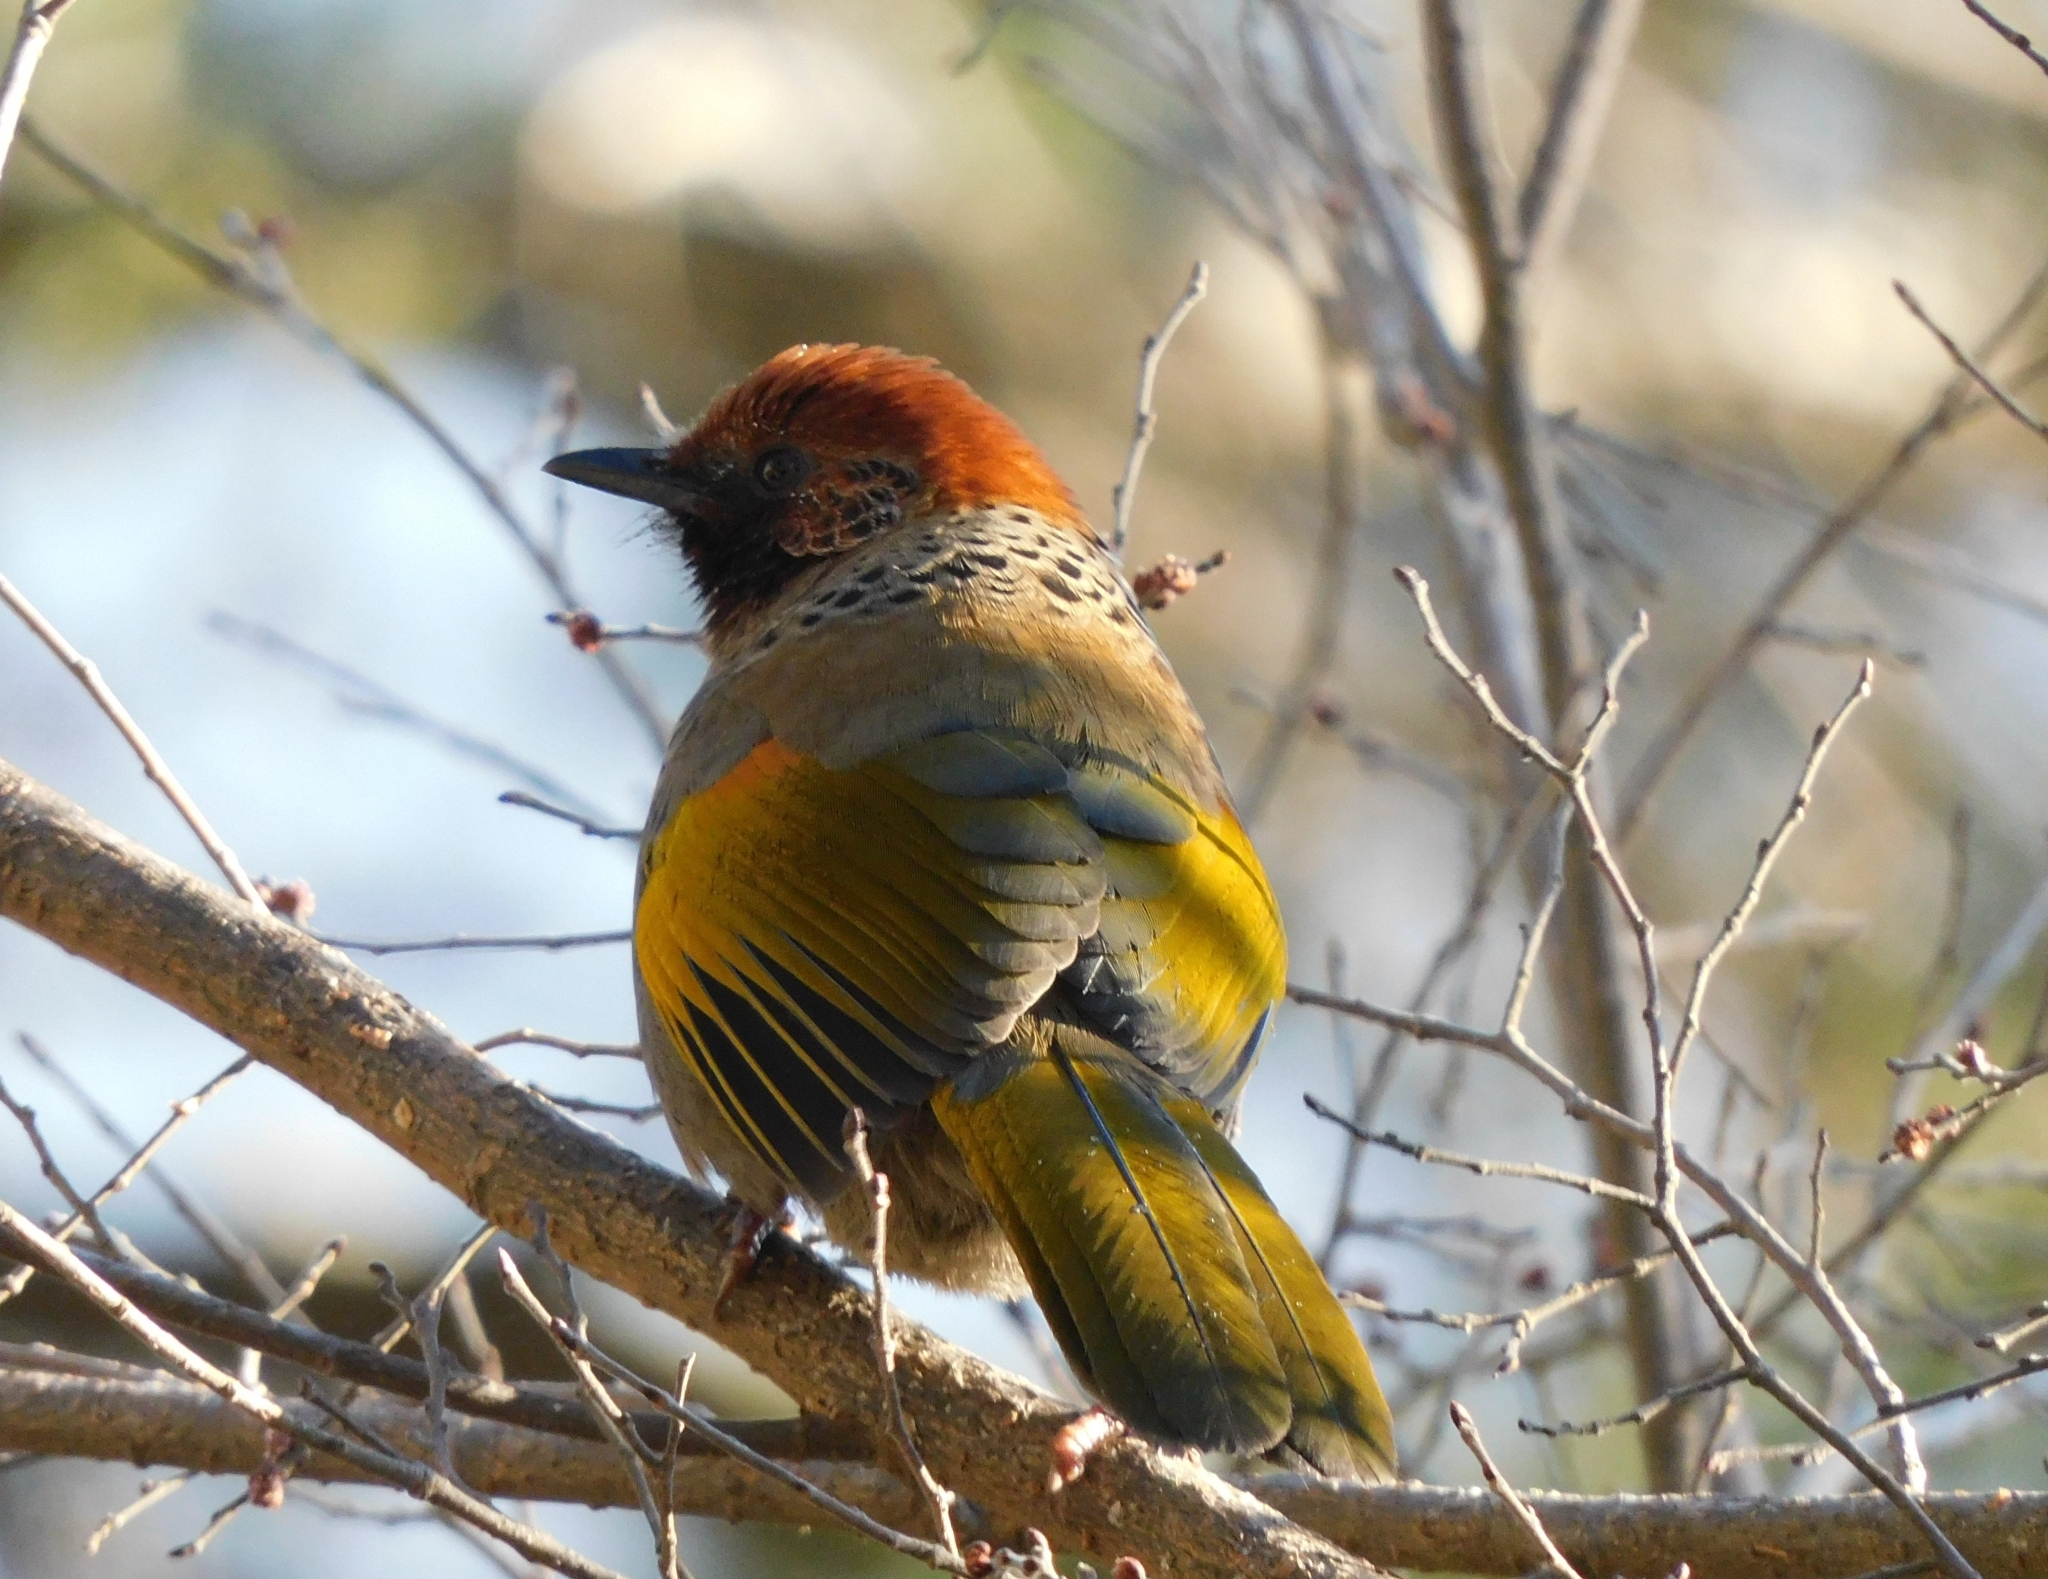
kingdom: Animalia
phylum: Chordata
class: Aves
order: Passeriformes
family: Leiothrichidae
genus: Trochalopteron
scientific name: Trochalopteron erythrocephalum
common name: Chestnut-crowned laughingthrush
